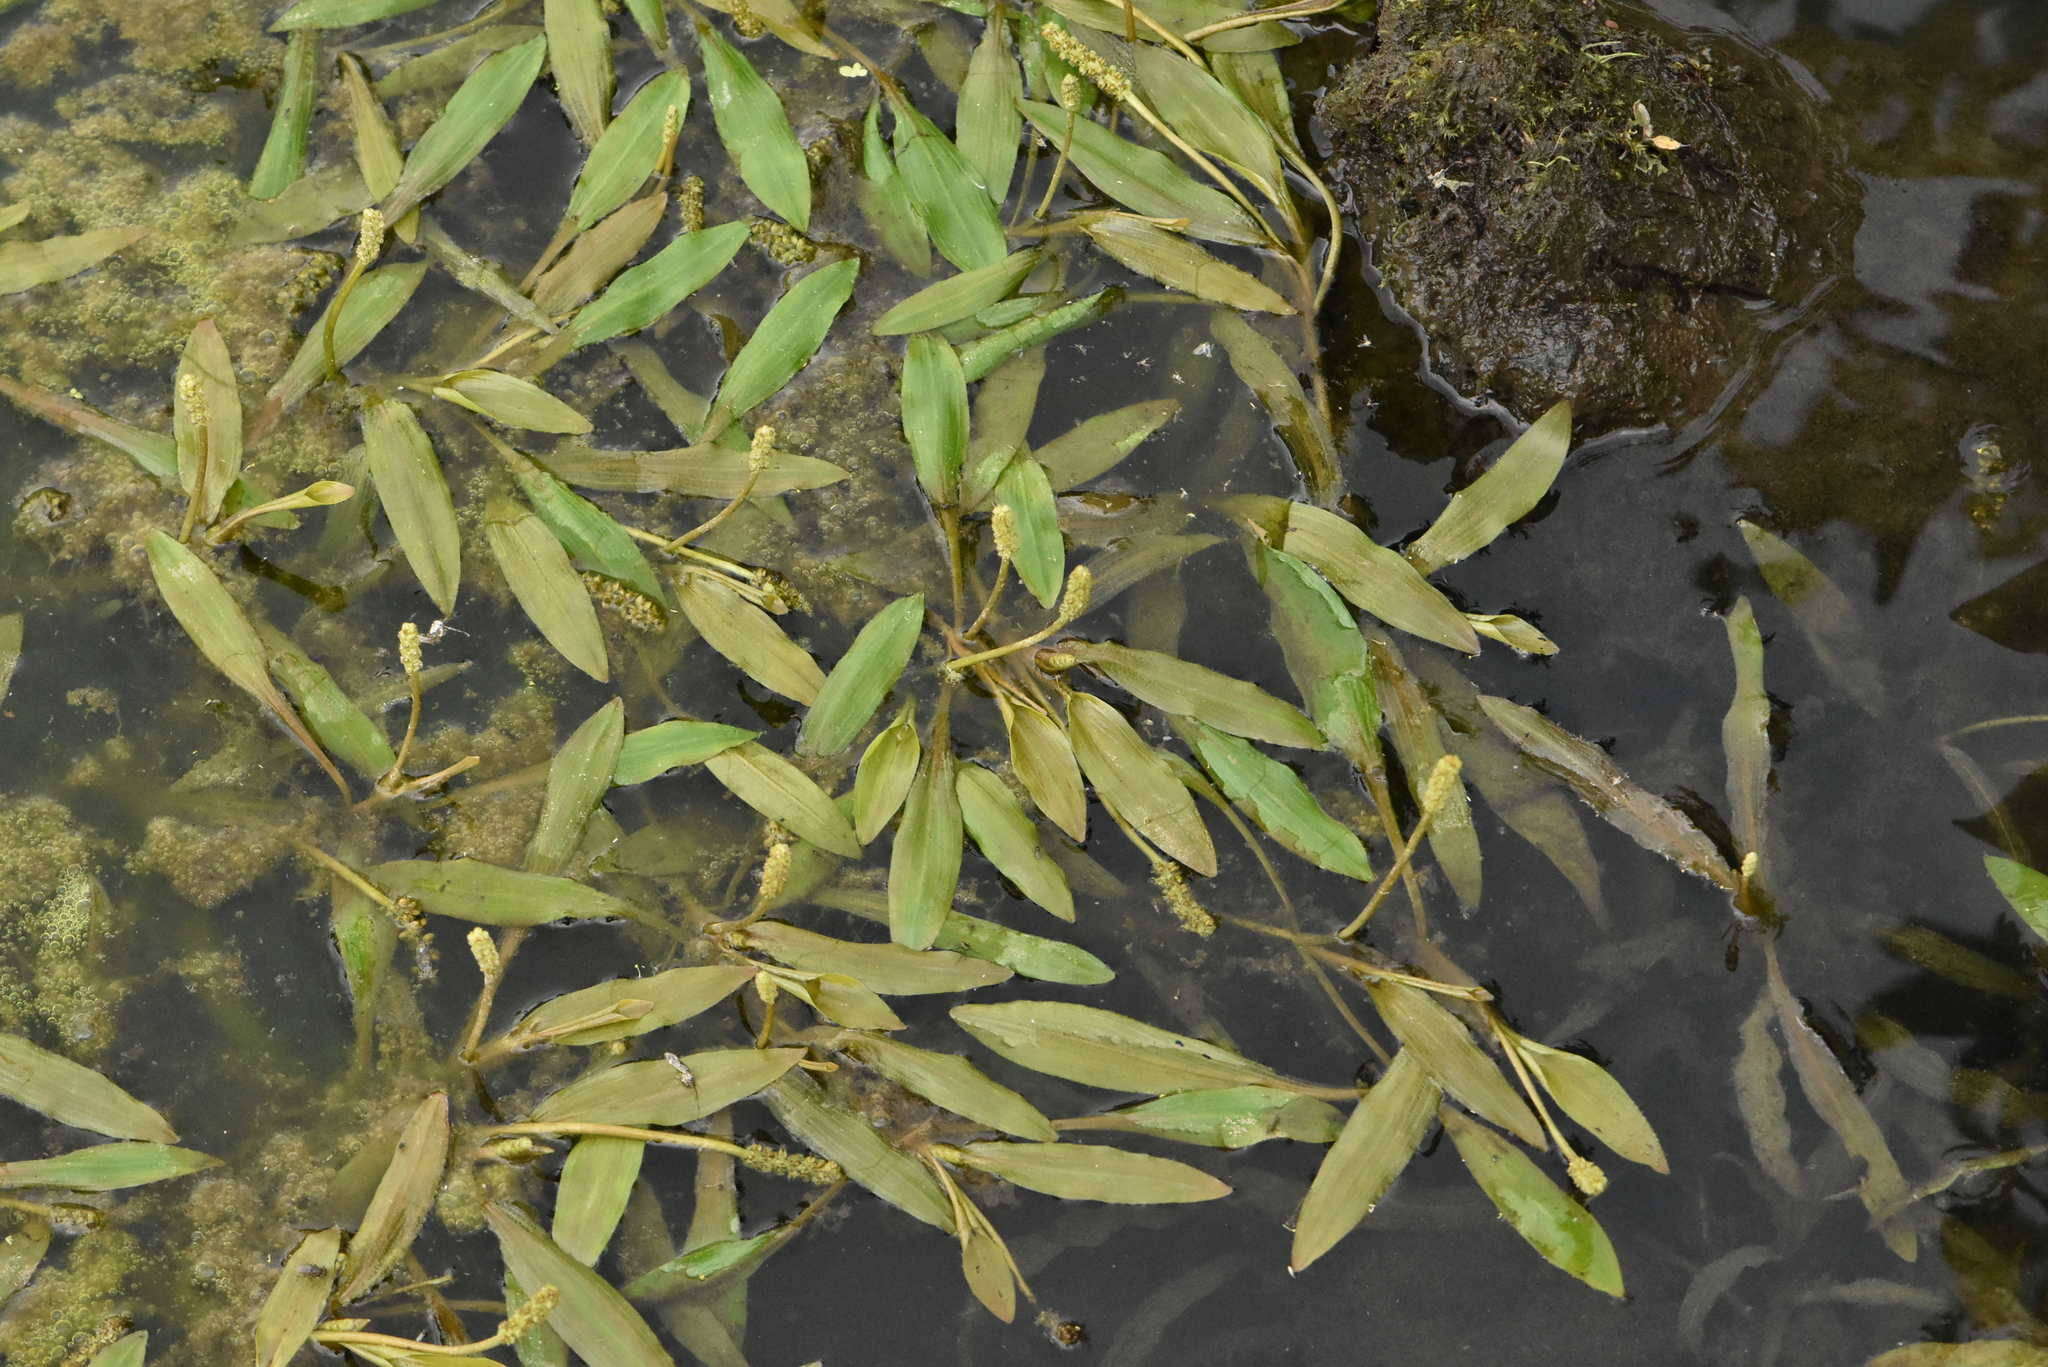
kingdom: Plantae
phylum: Tracheophyta
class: Liliopsida
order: Alismatales
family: Potamogetonaceae
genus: Potamogeton
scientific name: Potamogeton alpinus
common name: Red pondweed
